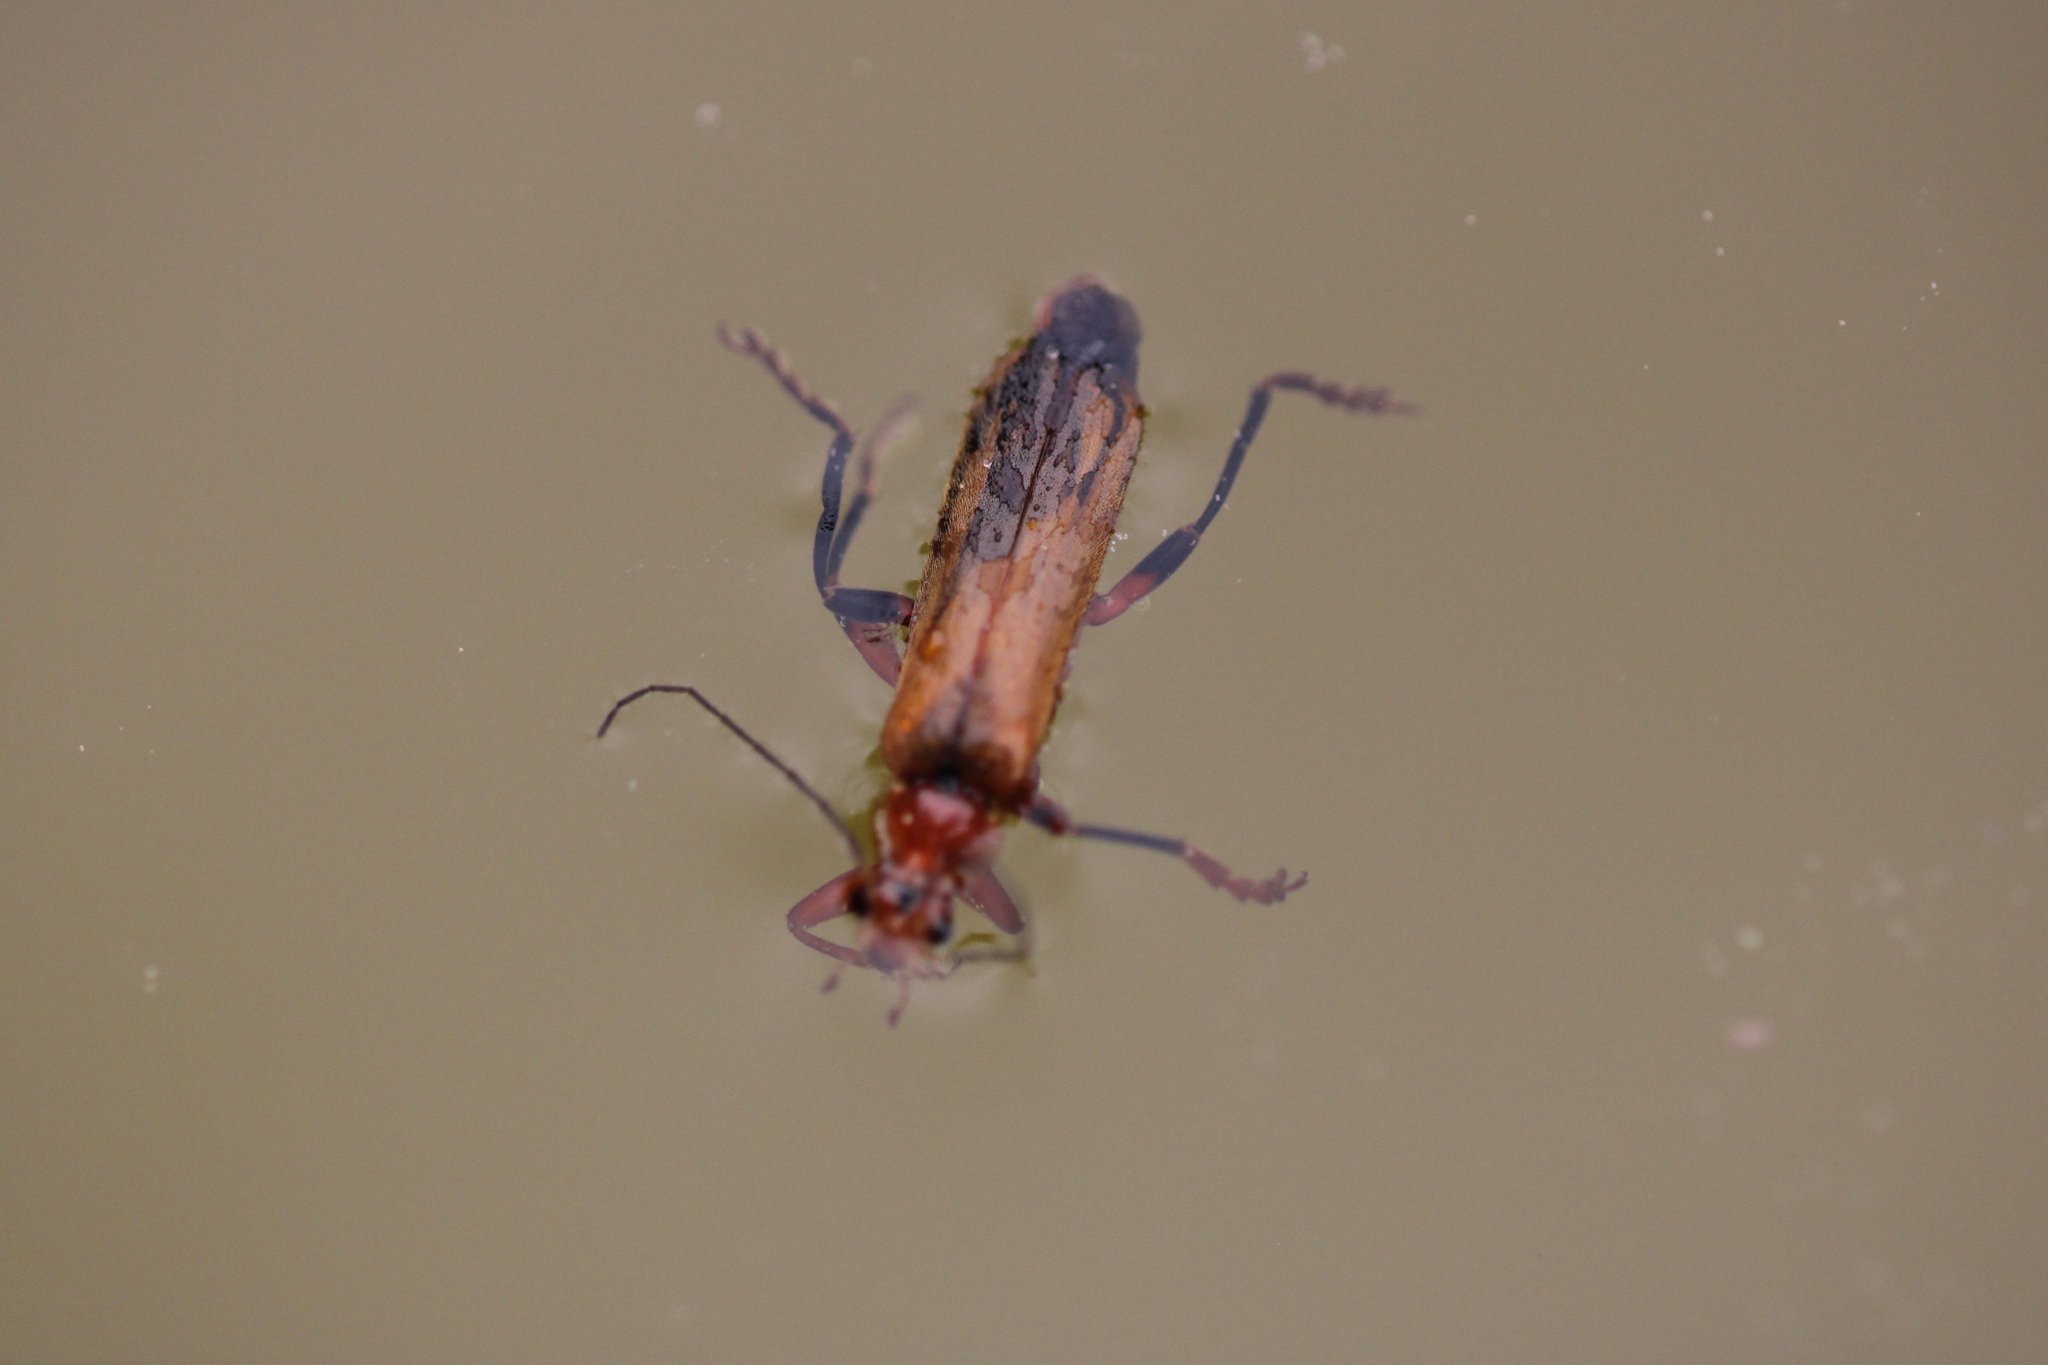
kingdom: Animalia
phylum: Arthropoda
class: Insecta
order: Coleoptera
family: Cantharidae
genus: Cantharis
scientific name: Cantharis livida
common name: Livid soldier beetle
